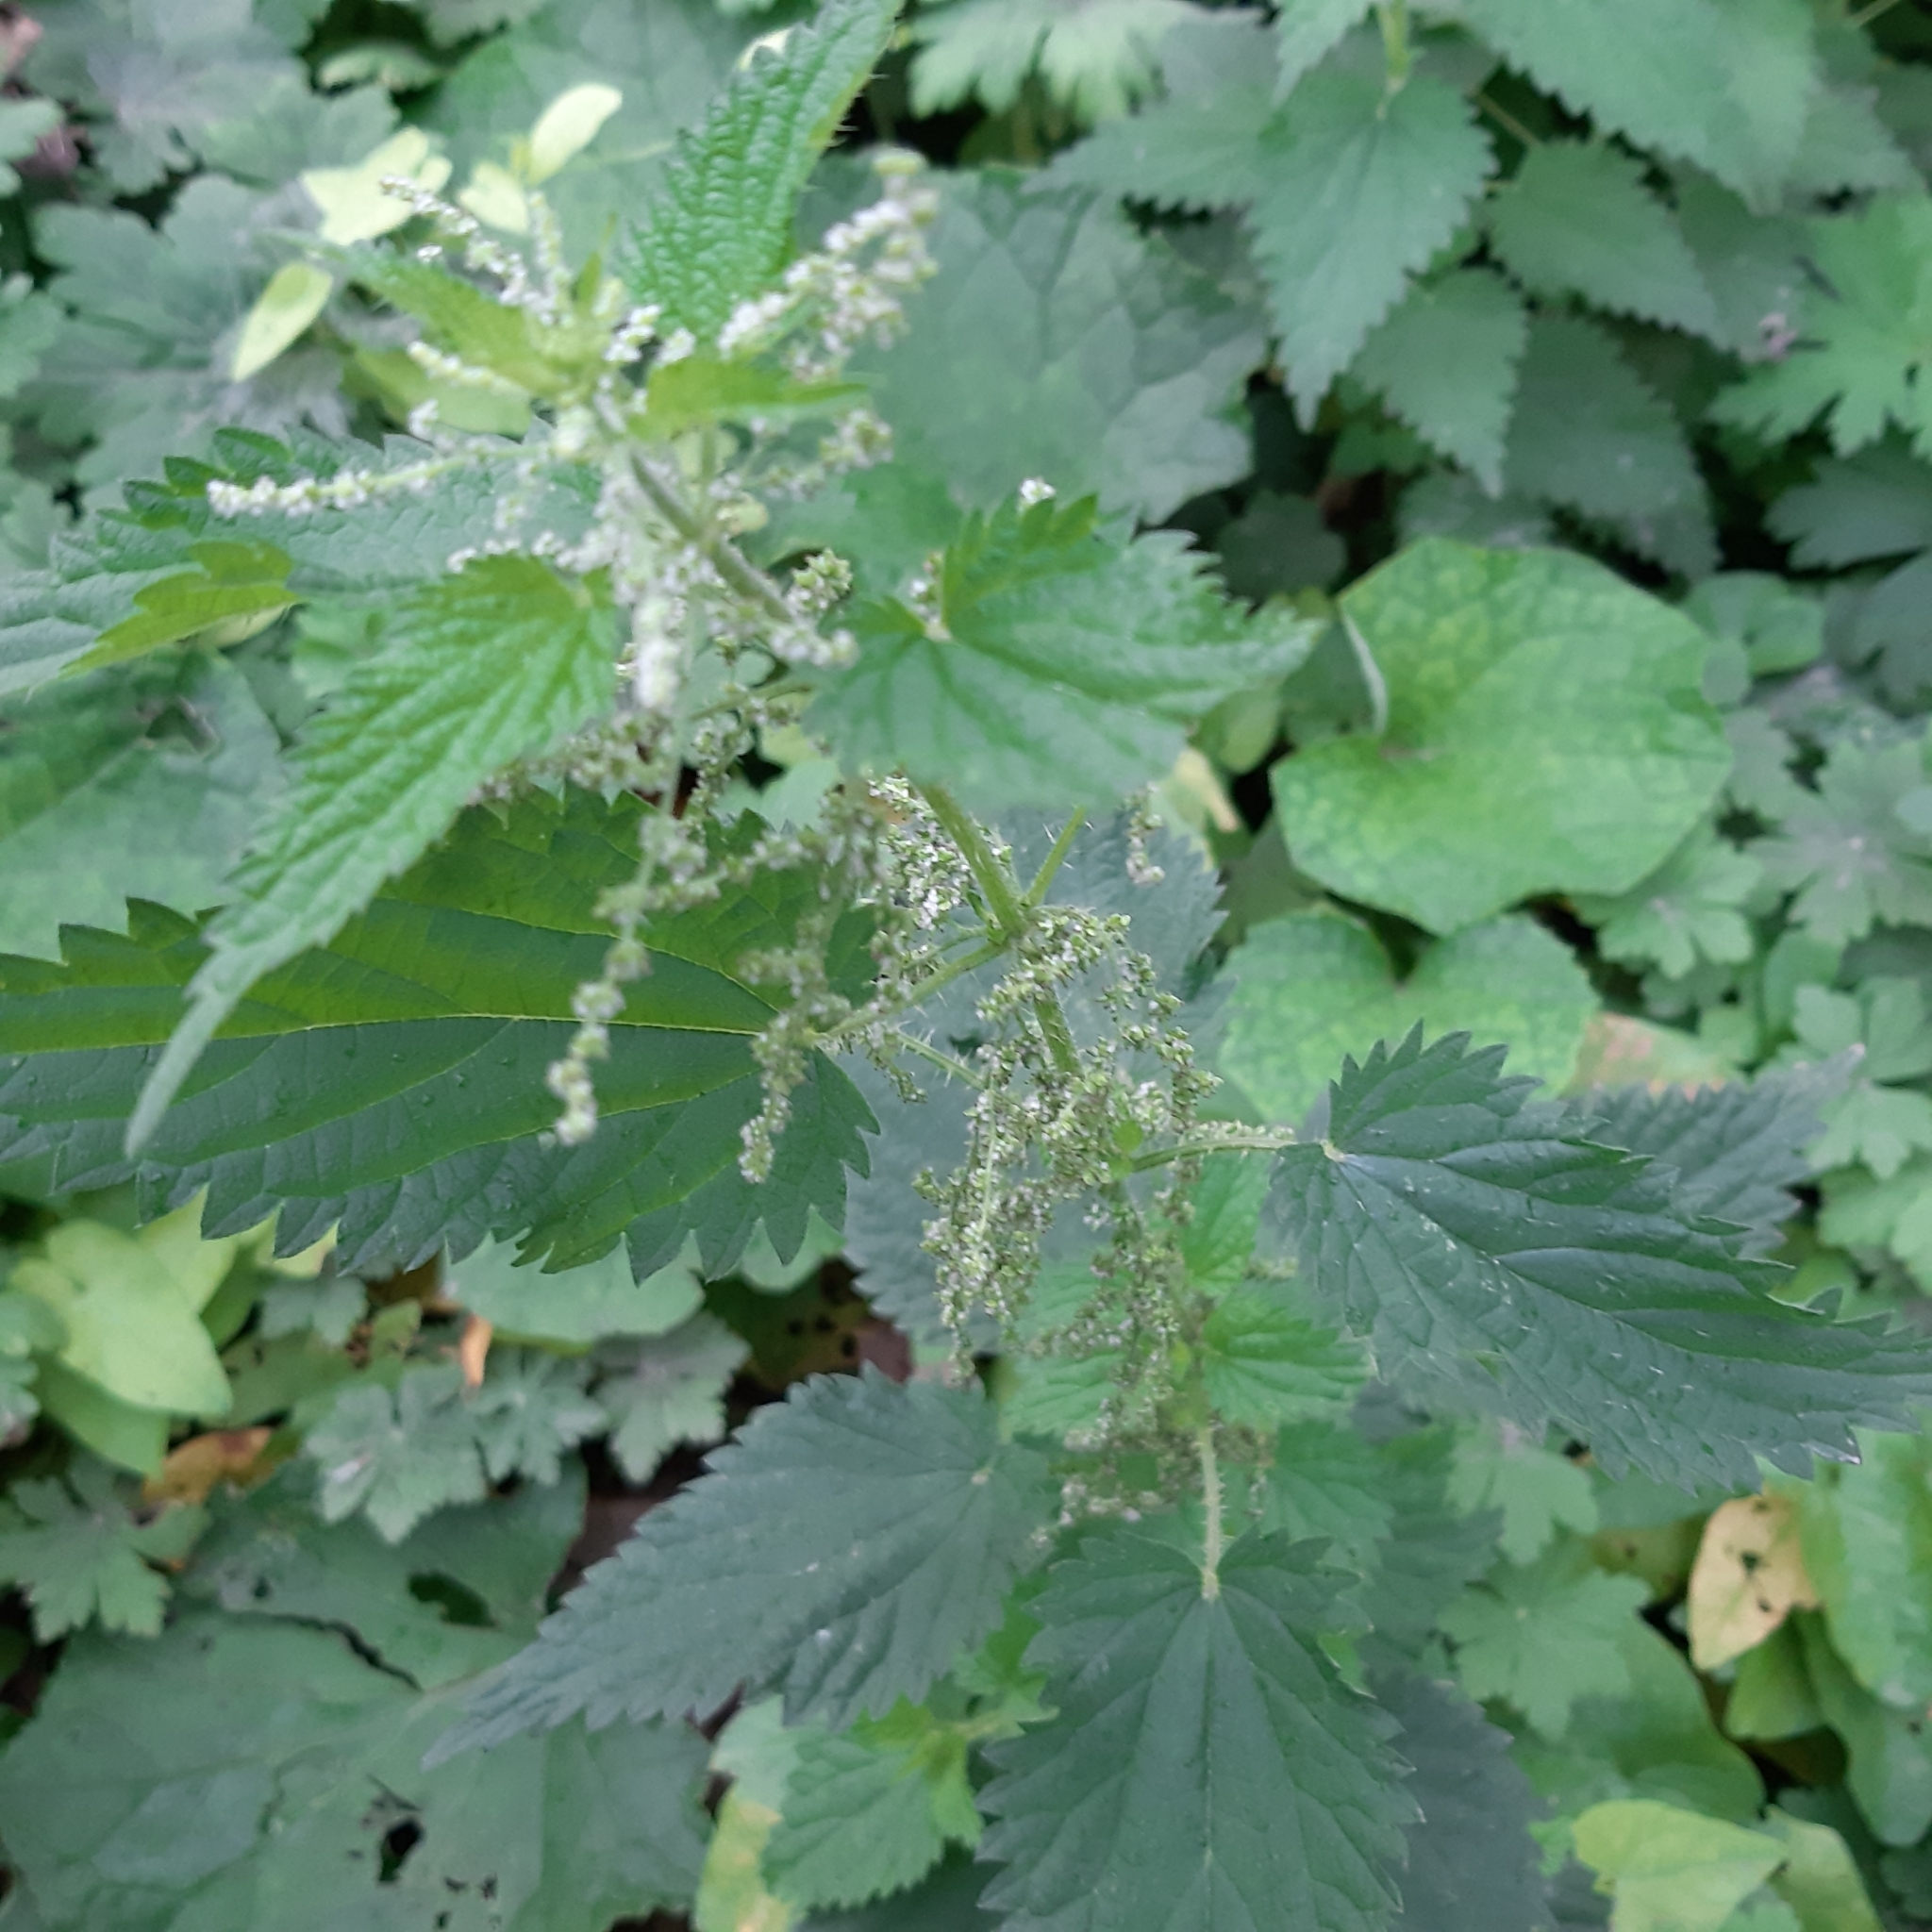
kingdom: Plantae
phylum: Tracheophyta
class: Magnoliopsida
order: Rosales
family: Urticaceae
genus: Urtica
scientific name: Urtica dioica
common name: Common nettle
